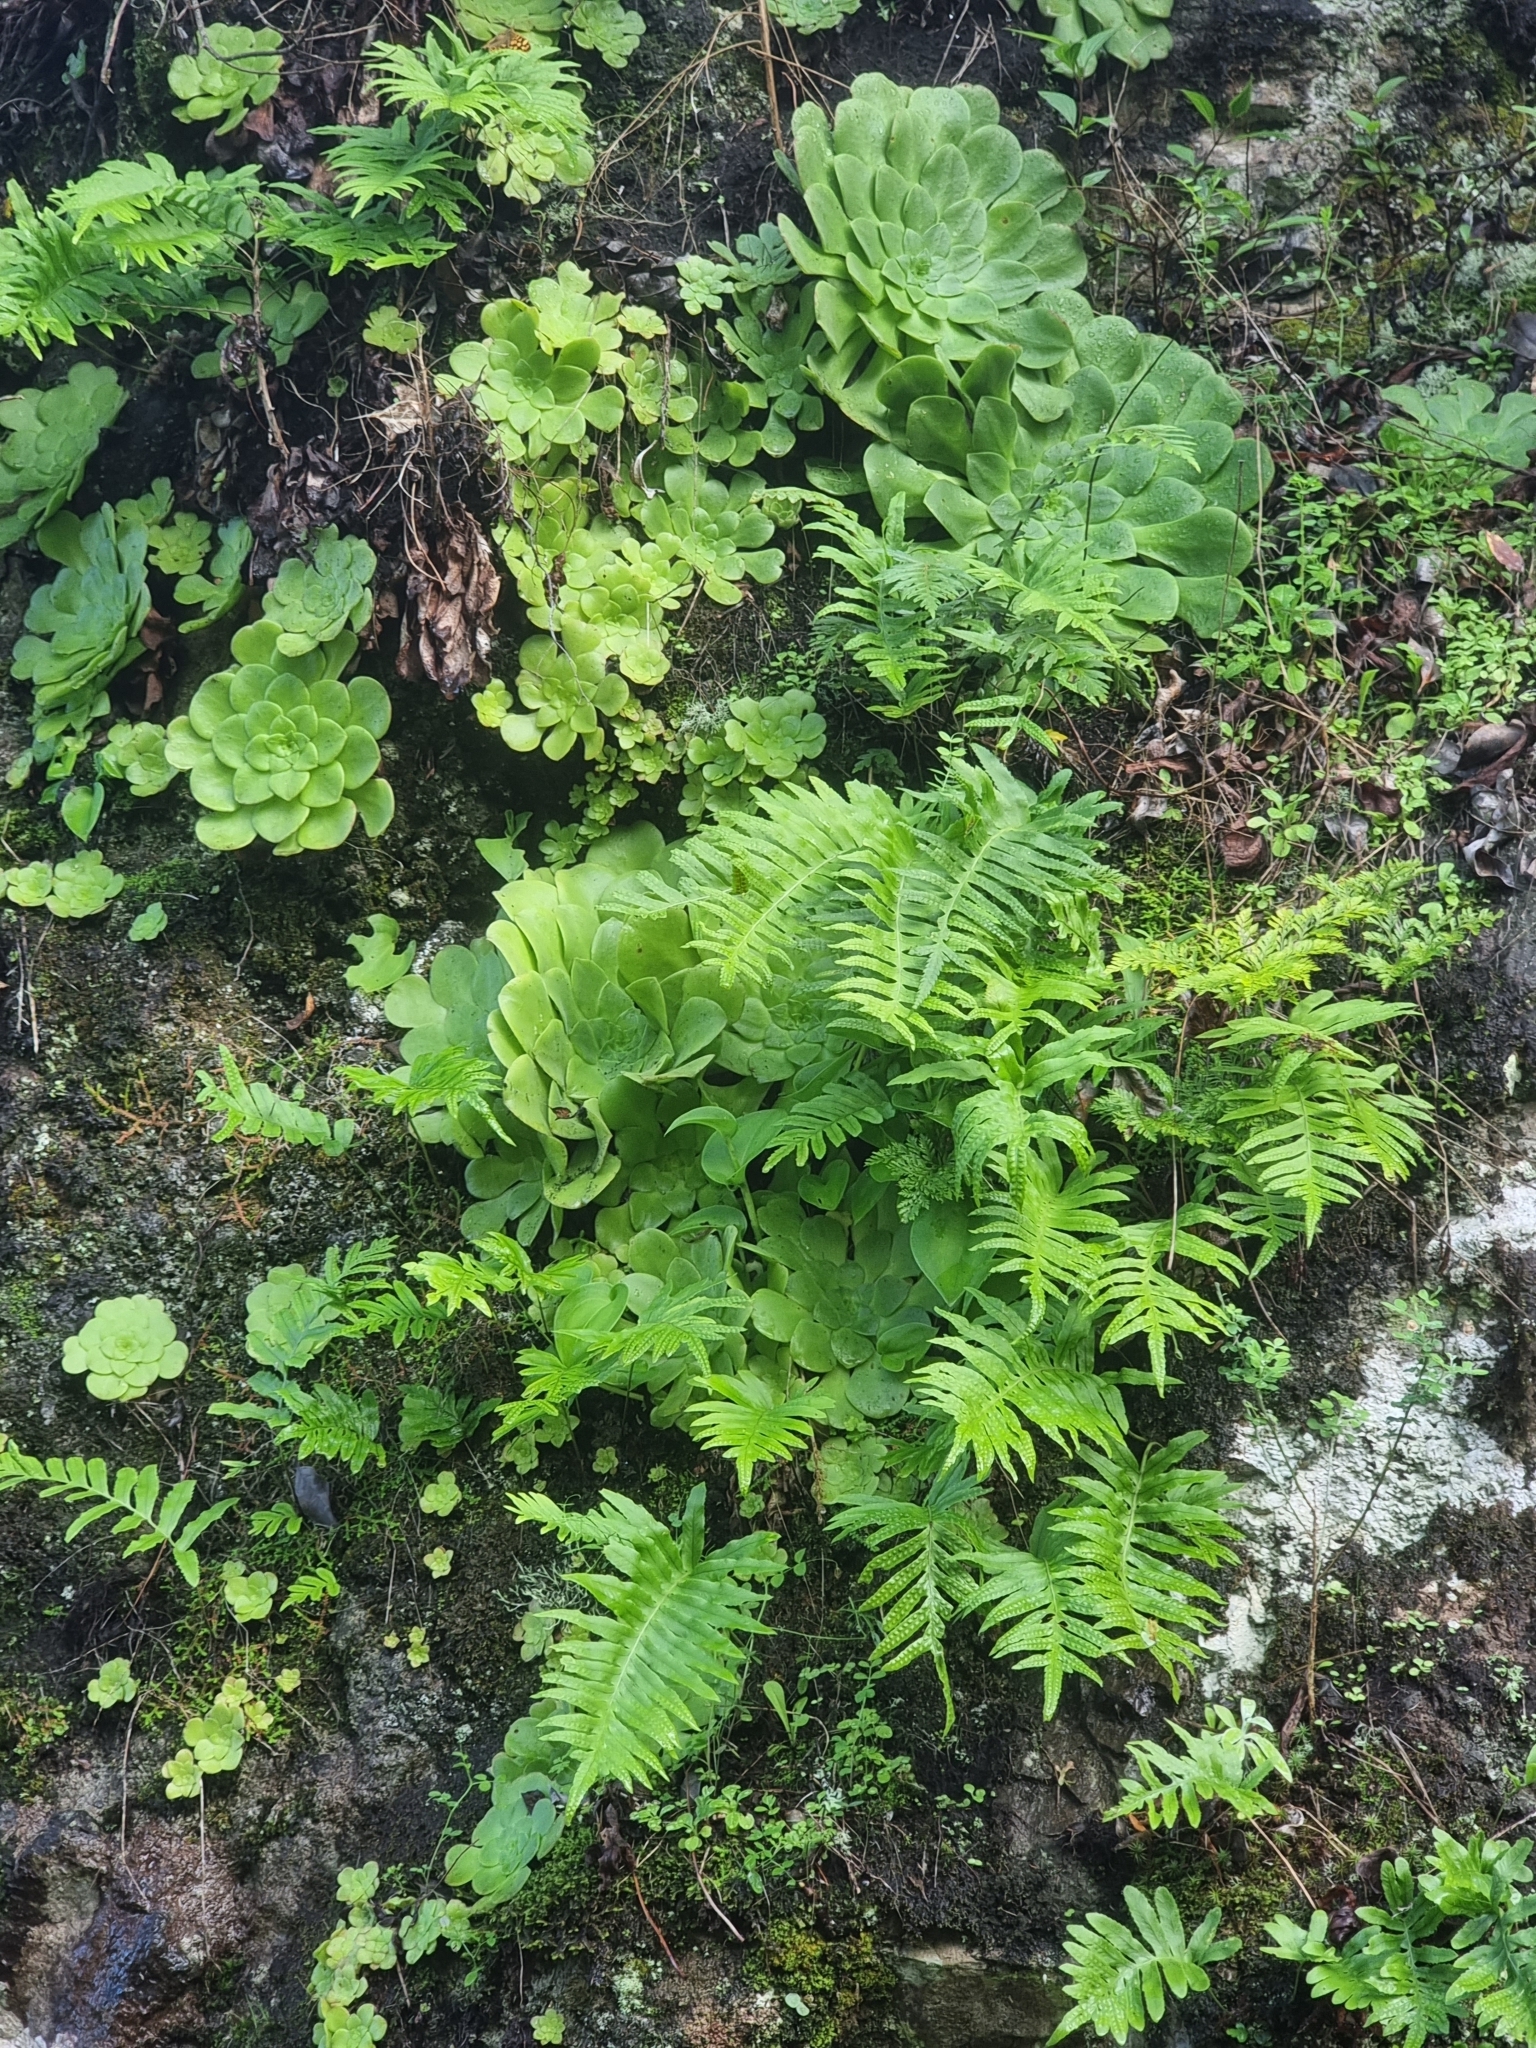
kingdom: Plantae
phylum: Tracheophyta
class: Polypodiopsida
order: Polypodiales
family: Polypodiaceae
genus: Polypodium
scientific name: Polypodium macaronesicum
